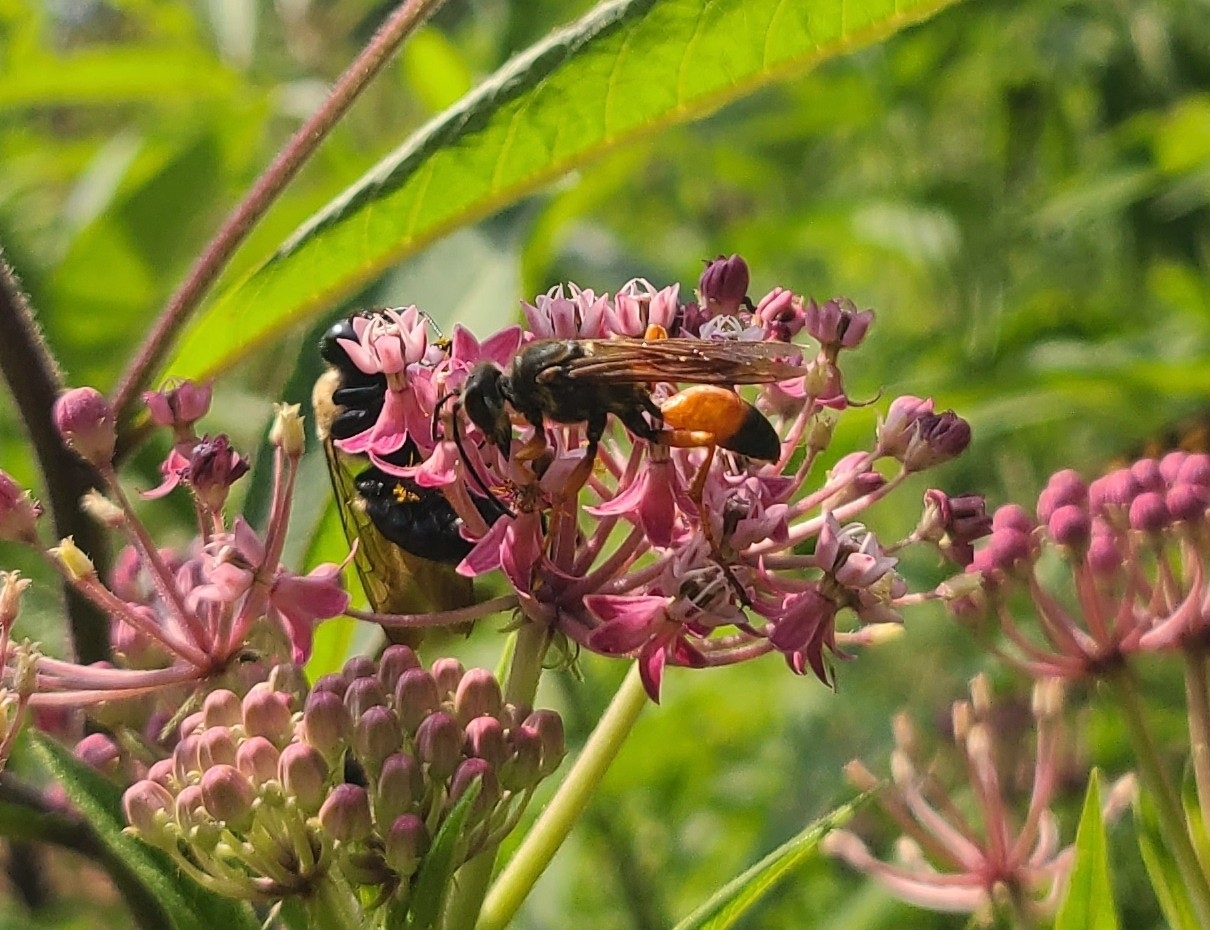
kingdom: Animalia
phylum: Arthropoda
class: Insecta
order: Hymenoptera
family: Sphecidae
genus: Sphex
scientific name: Sphex ichneumoneus
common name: Great golden digger wasp
